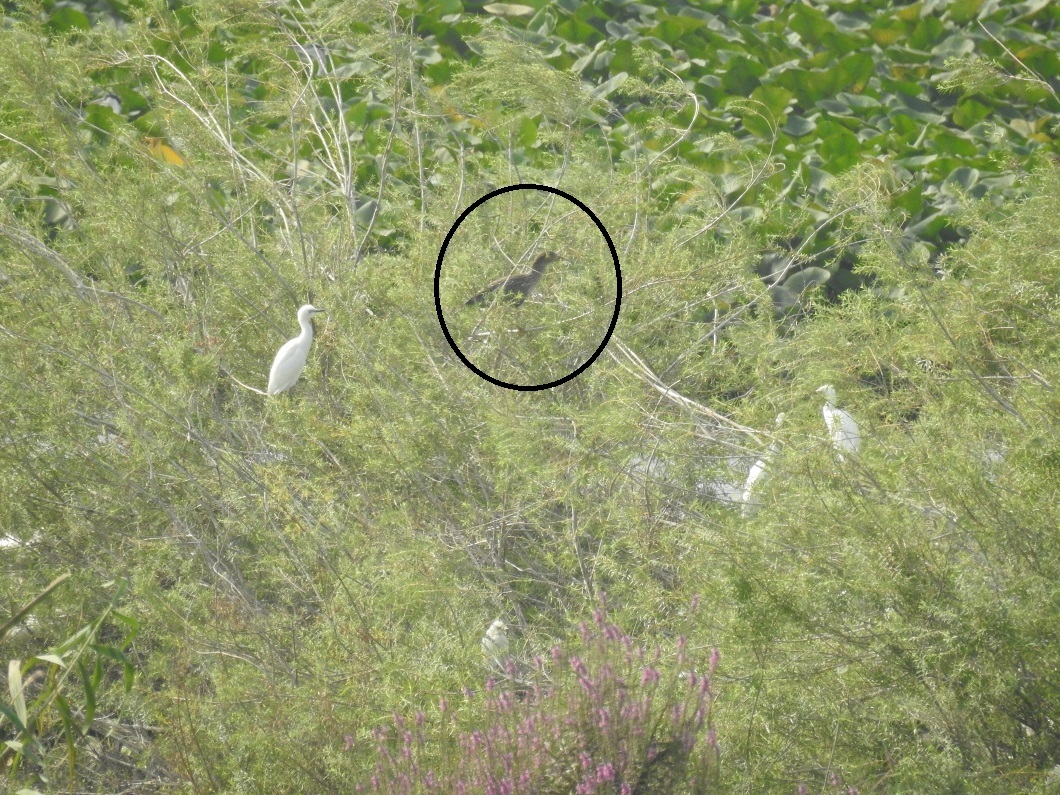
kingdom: Animalia
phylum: Chordata
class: Aves
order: Pelecaniformes
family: Ardeidae
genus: Nycticorax
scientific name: Nycticorax nycticorax
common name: Black-crowned night heron
